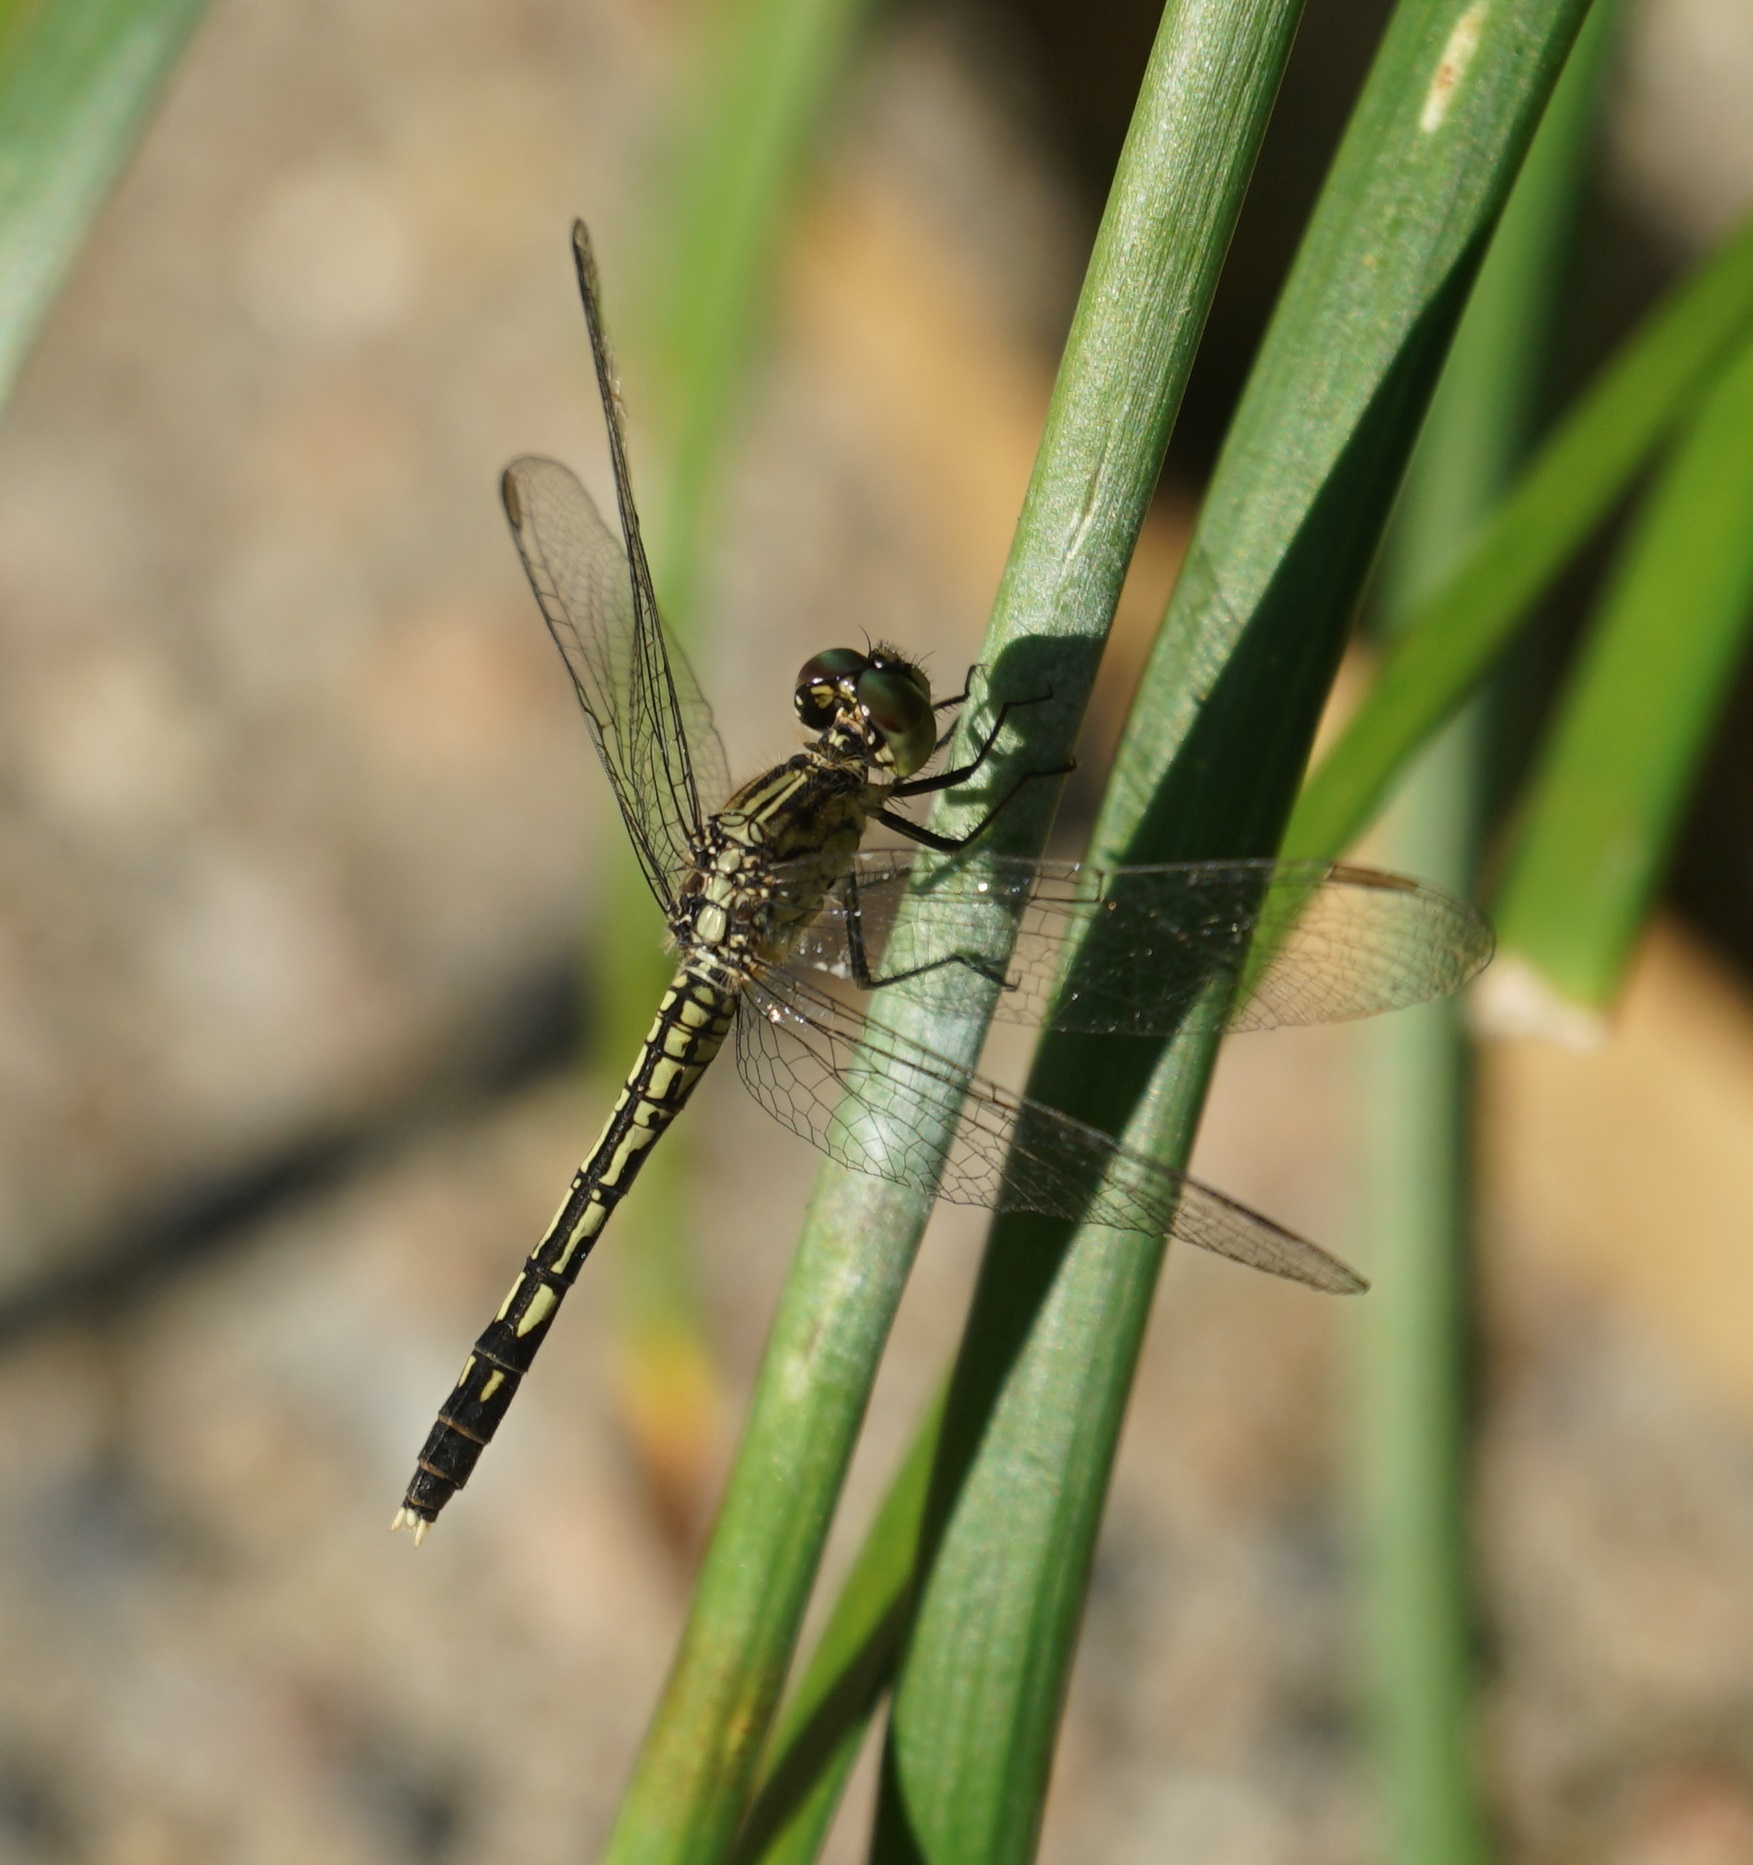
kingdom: Animalia
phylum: Arthropoda
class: Insecta
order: Odonata
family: Libellulidae
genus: Diplacodes
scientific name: Diplacodes trivialis
